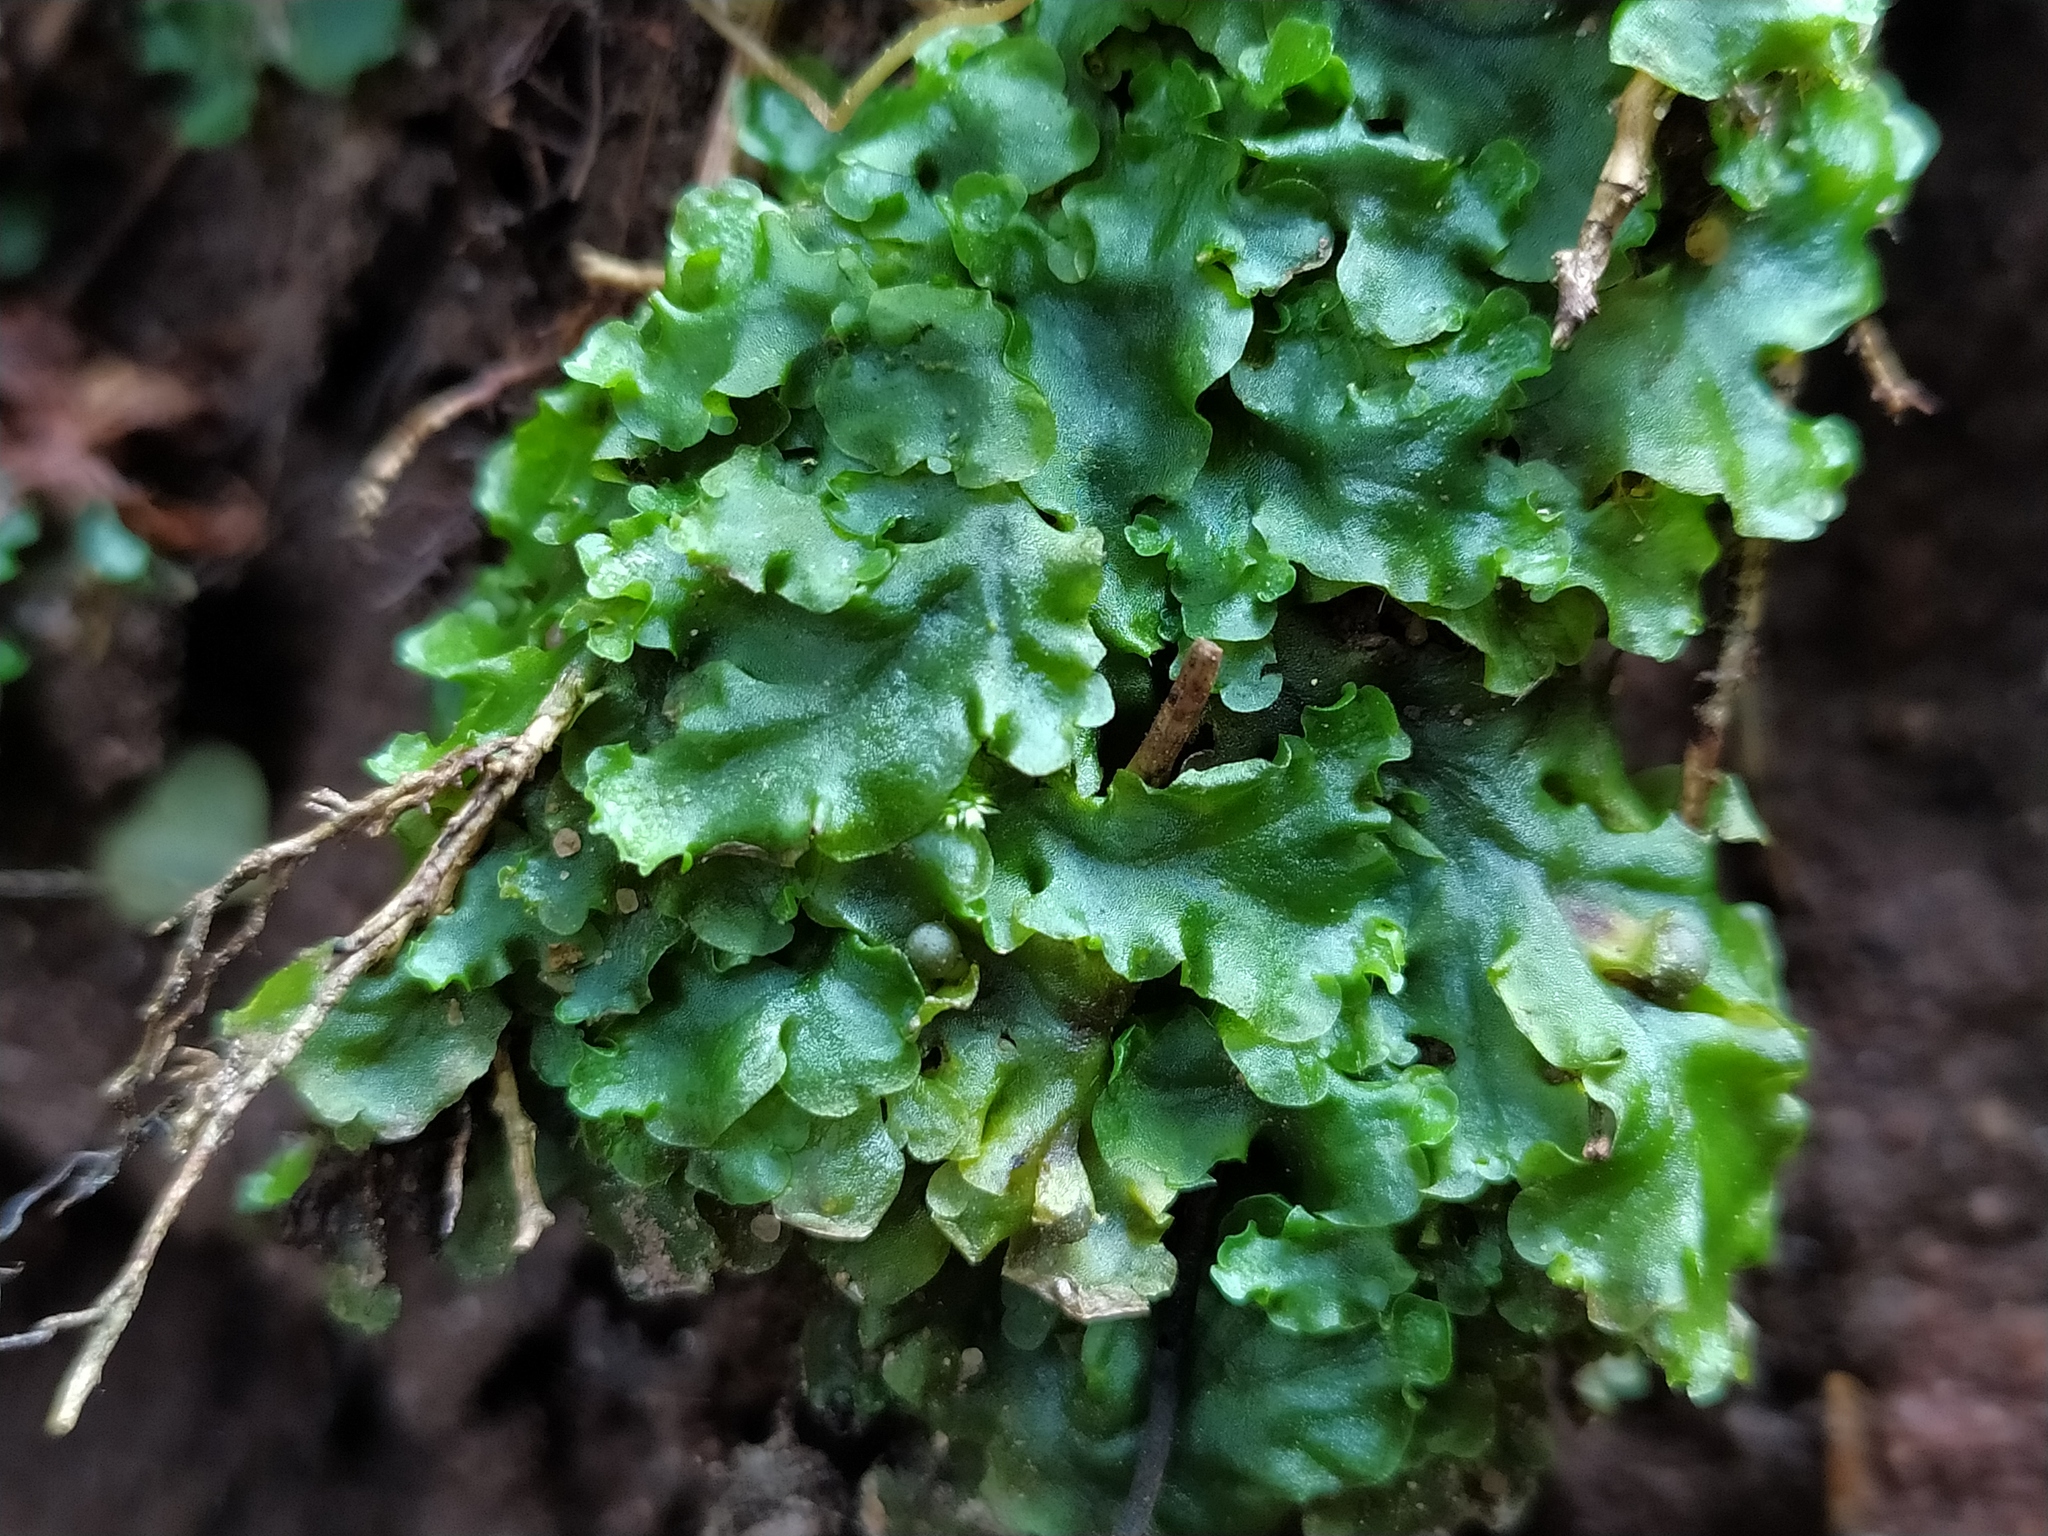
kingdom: Plantae
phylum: Marchantiophyta
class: Jungermanniopsida
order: Pelliales
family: Pelliaceae
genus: Pellia
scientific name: Pellia epiphylla
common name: Common pellia
